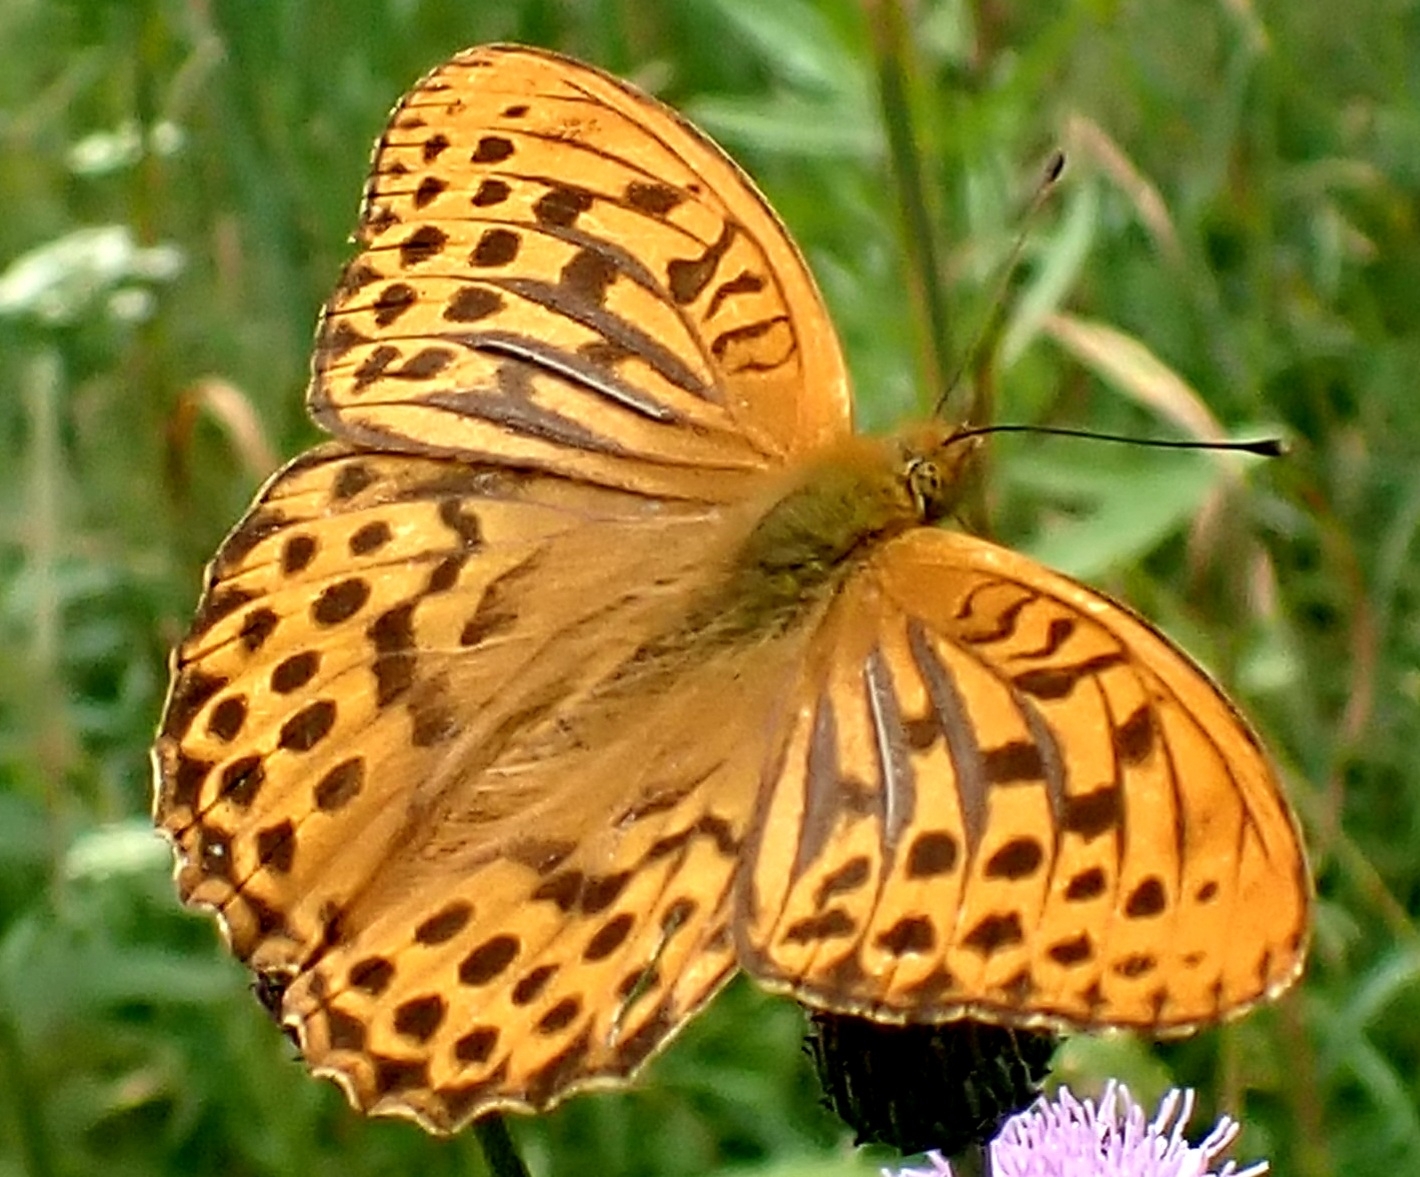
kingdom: Animalia
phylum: Arthropoda
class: Insecta
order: Lepidoptera
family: Nymphalidae
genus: Argynnis
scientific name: Argynnis paphia
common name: Silver-washed fritillary
